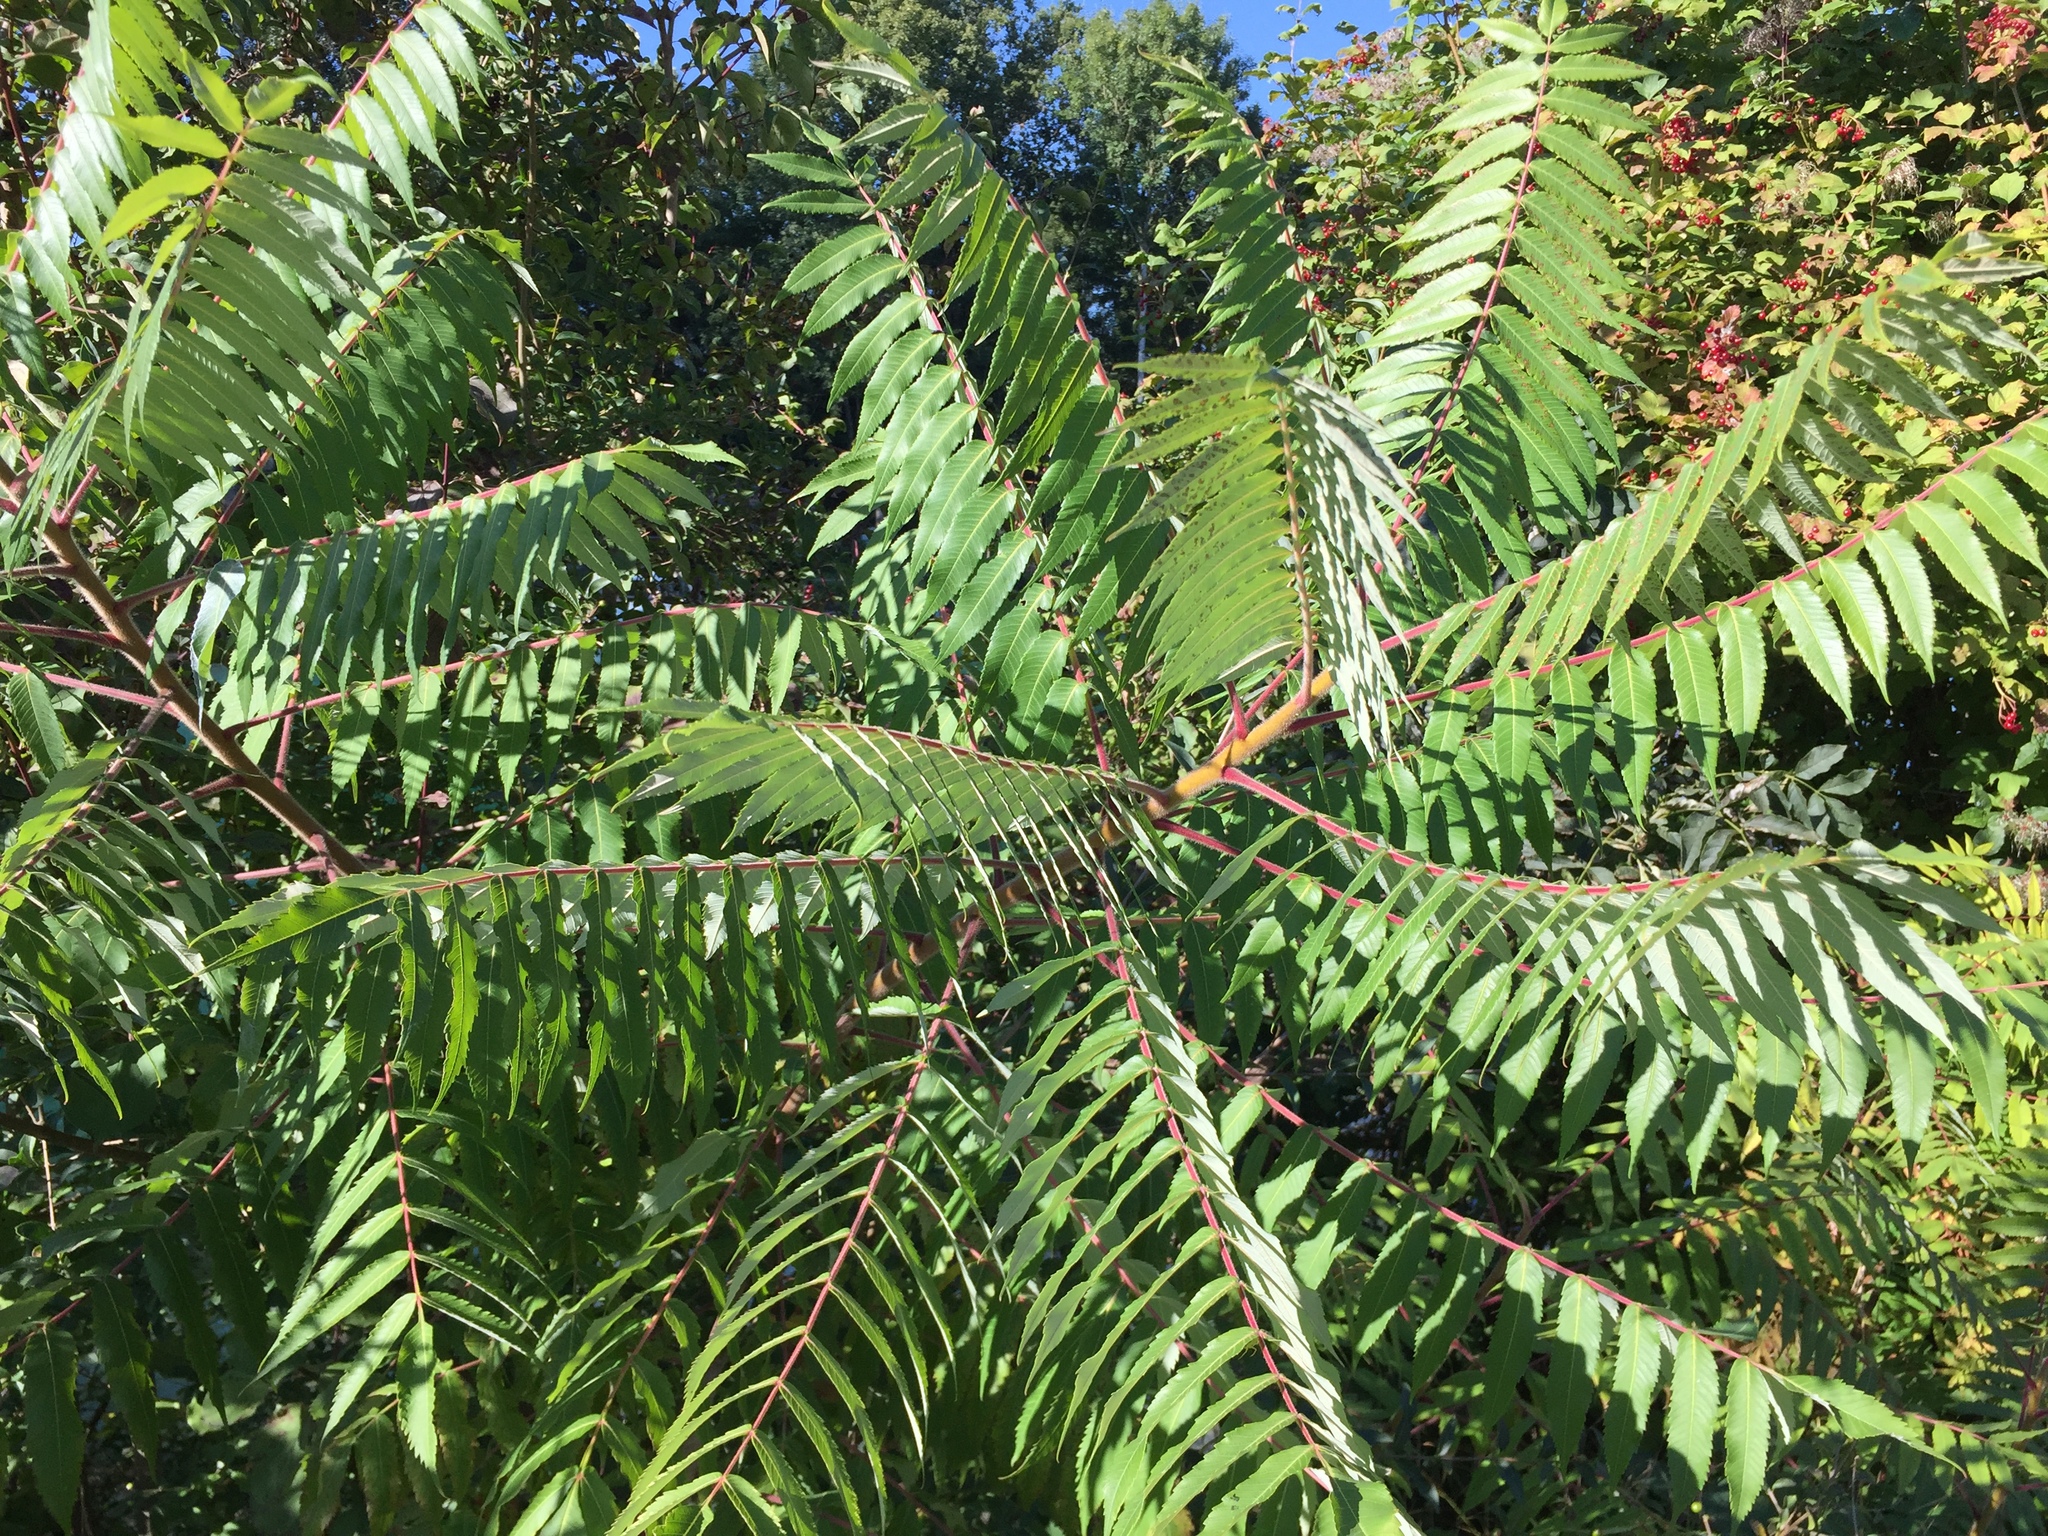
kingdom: Plantae
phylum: Tracheophyta
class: Magnoliopsida
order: Sapindales
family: Anacardiaceae
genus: Rhus
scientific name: Rhus typhina
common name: Staghorn sumac
